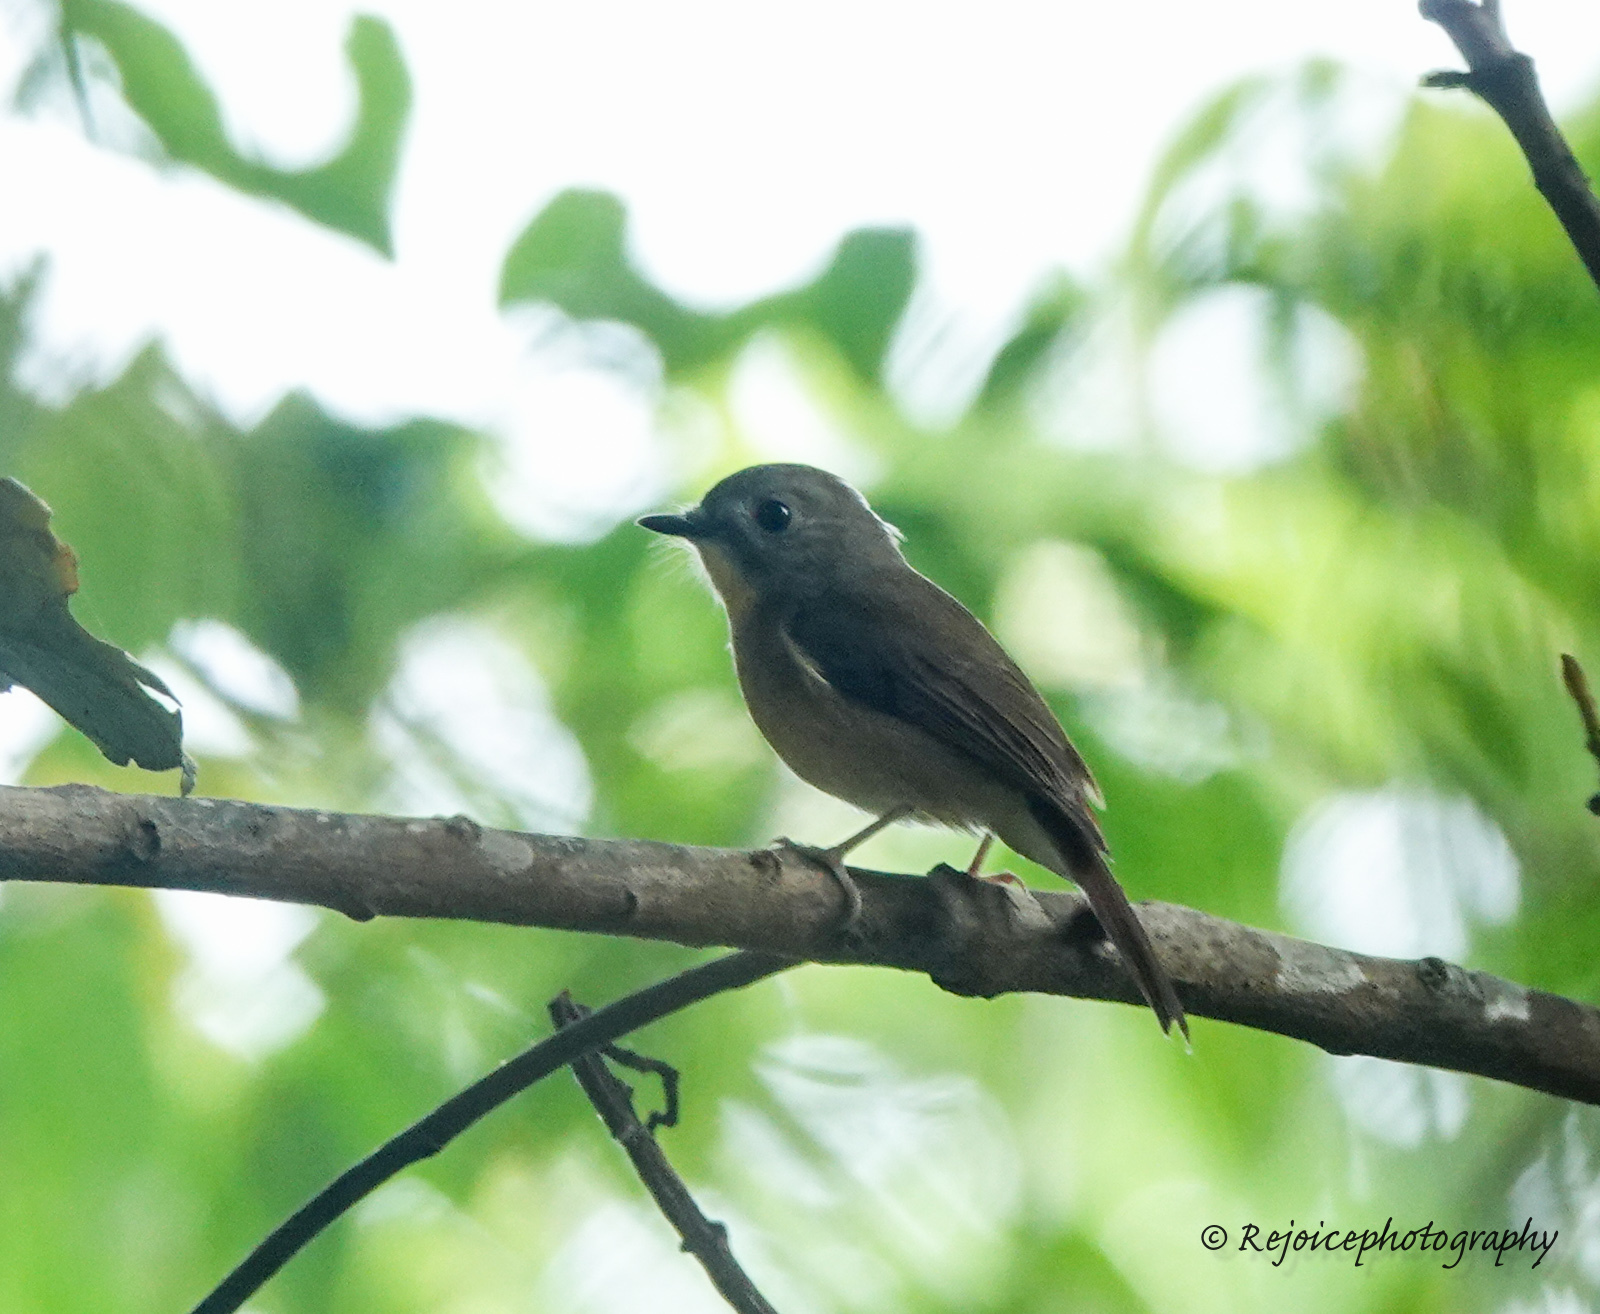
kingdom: Animalia
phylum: Chordata
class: Aves
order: Passeriformes
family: Muscicapidae
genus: Cyornis
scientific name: Cyornis poliogenys
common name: Pale-chinned blue flycatcher
